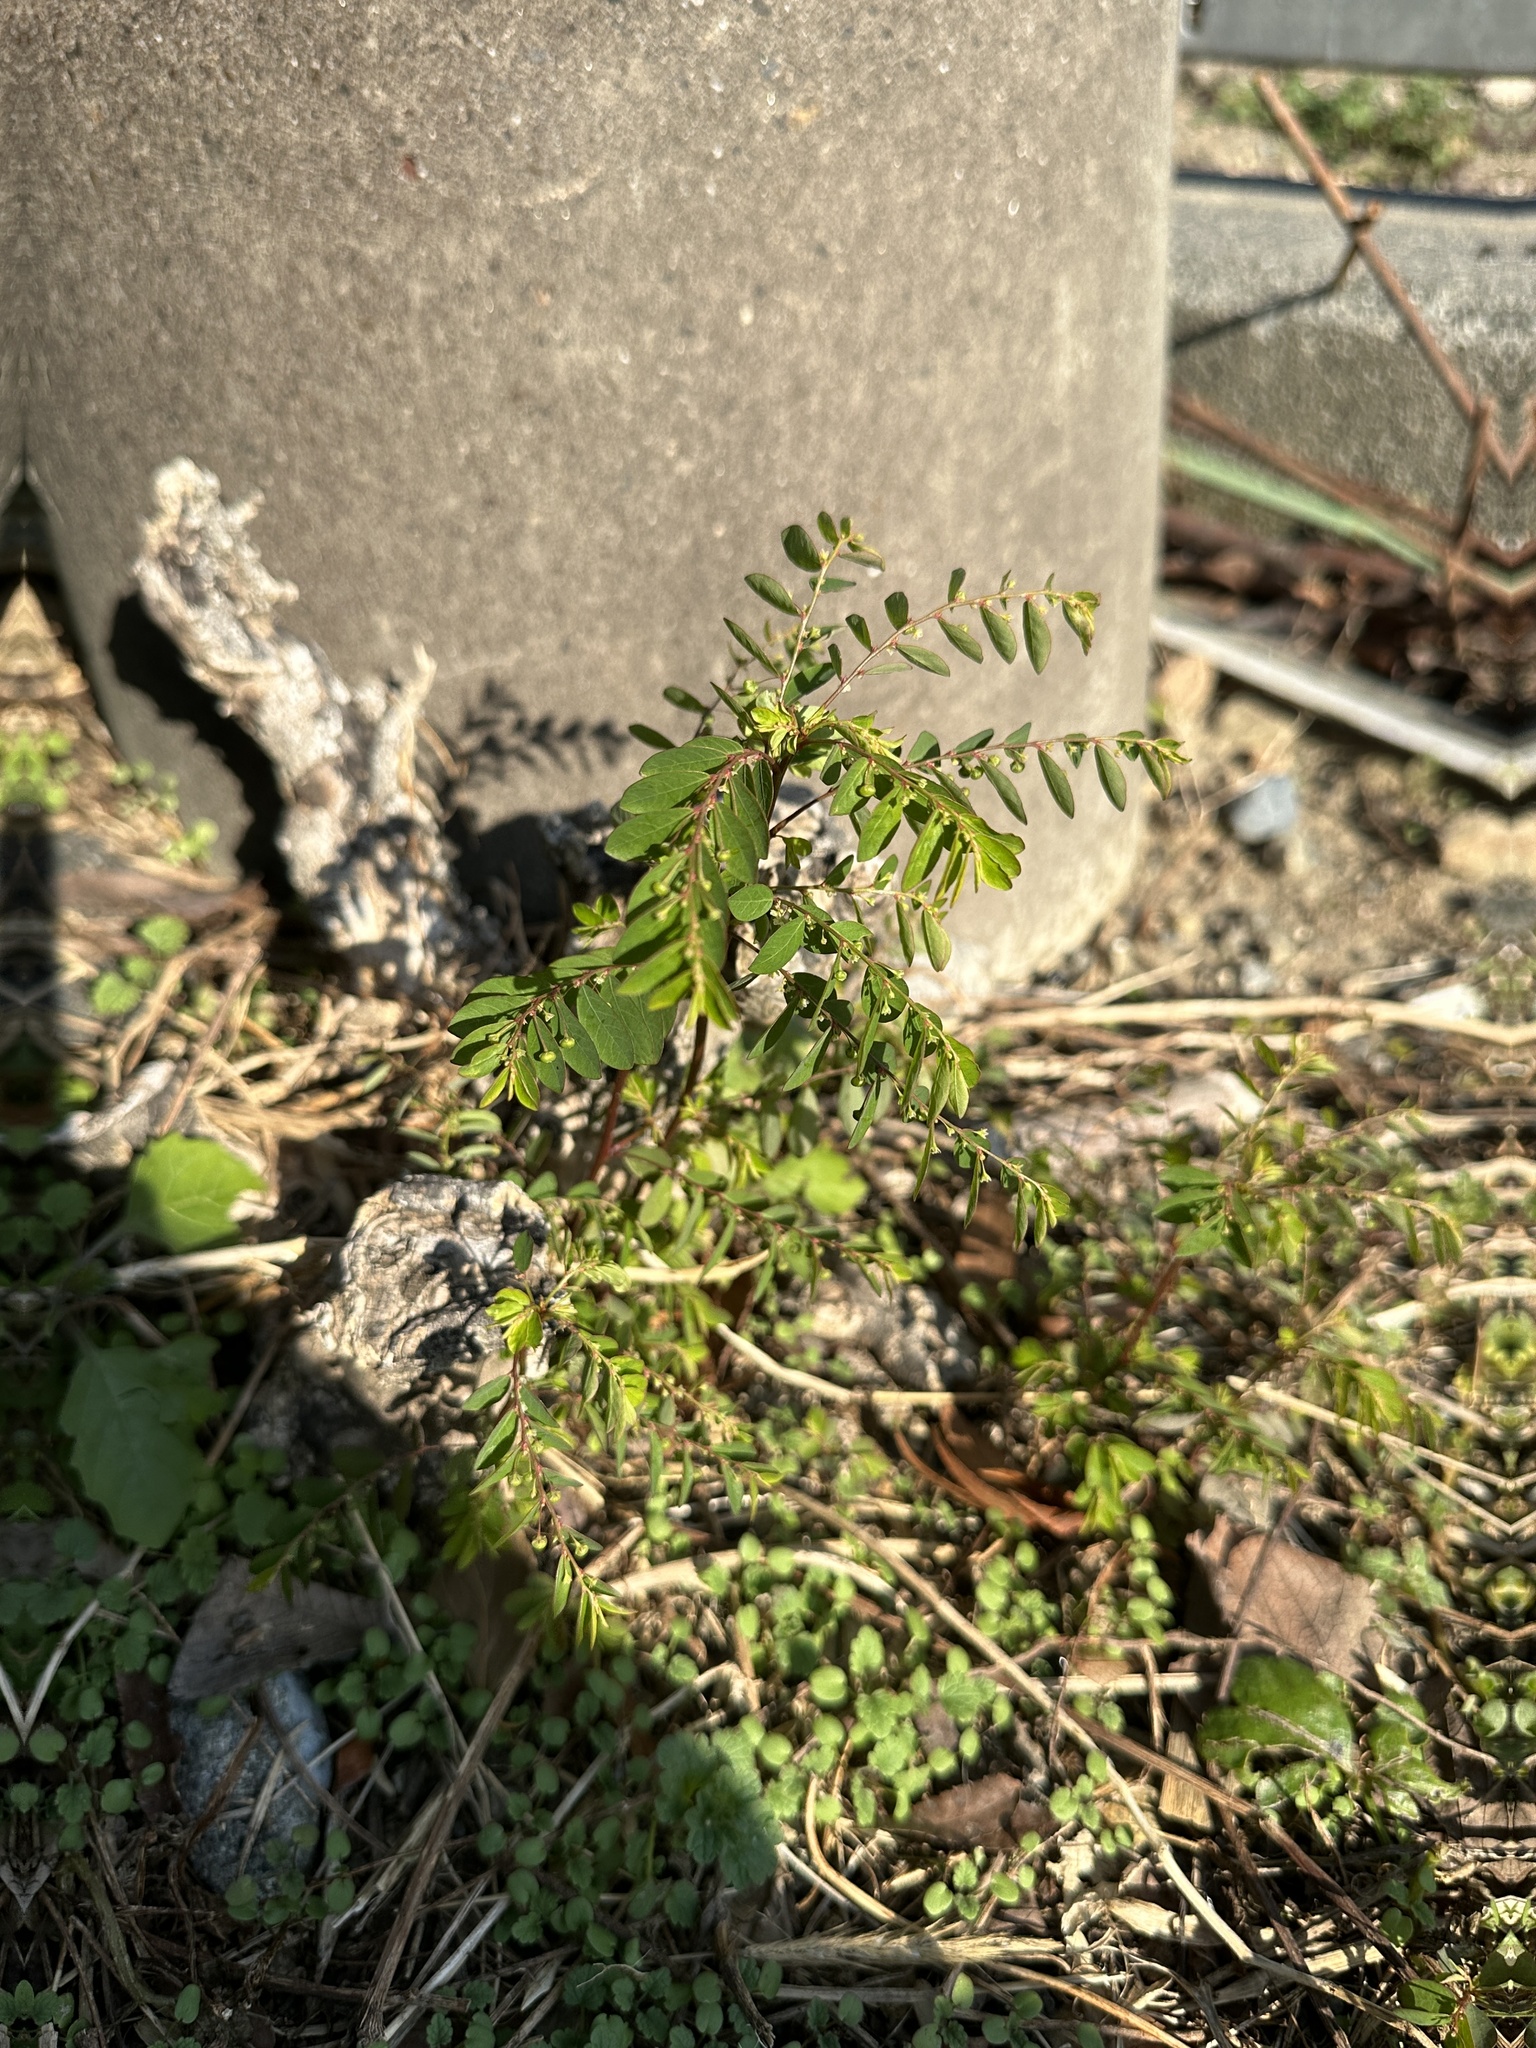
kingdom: Plantae
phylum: Tracheophyta
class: Magnoliopsida
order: Malpighiales
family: Phyllanthaceae
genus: Phyllanthus
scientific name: Phyllanthus tenellus
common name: Mascarene island leaf-flower
